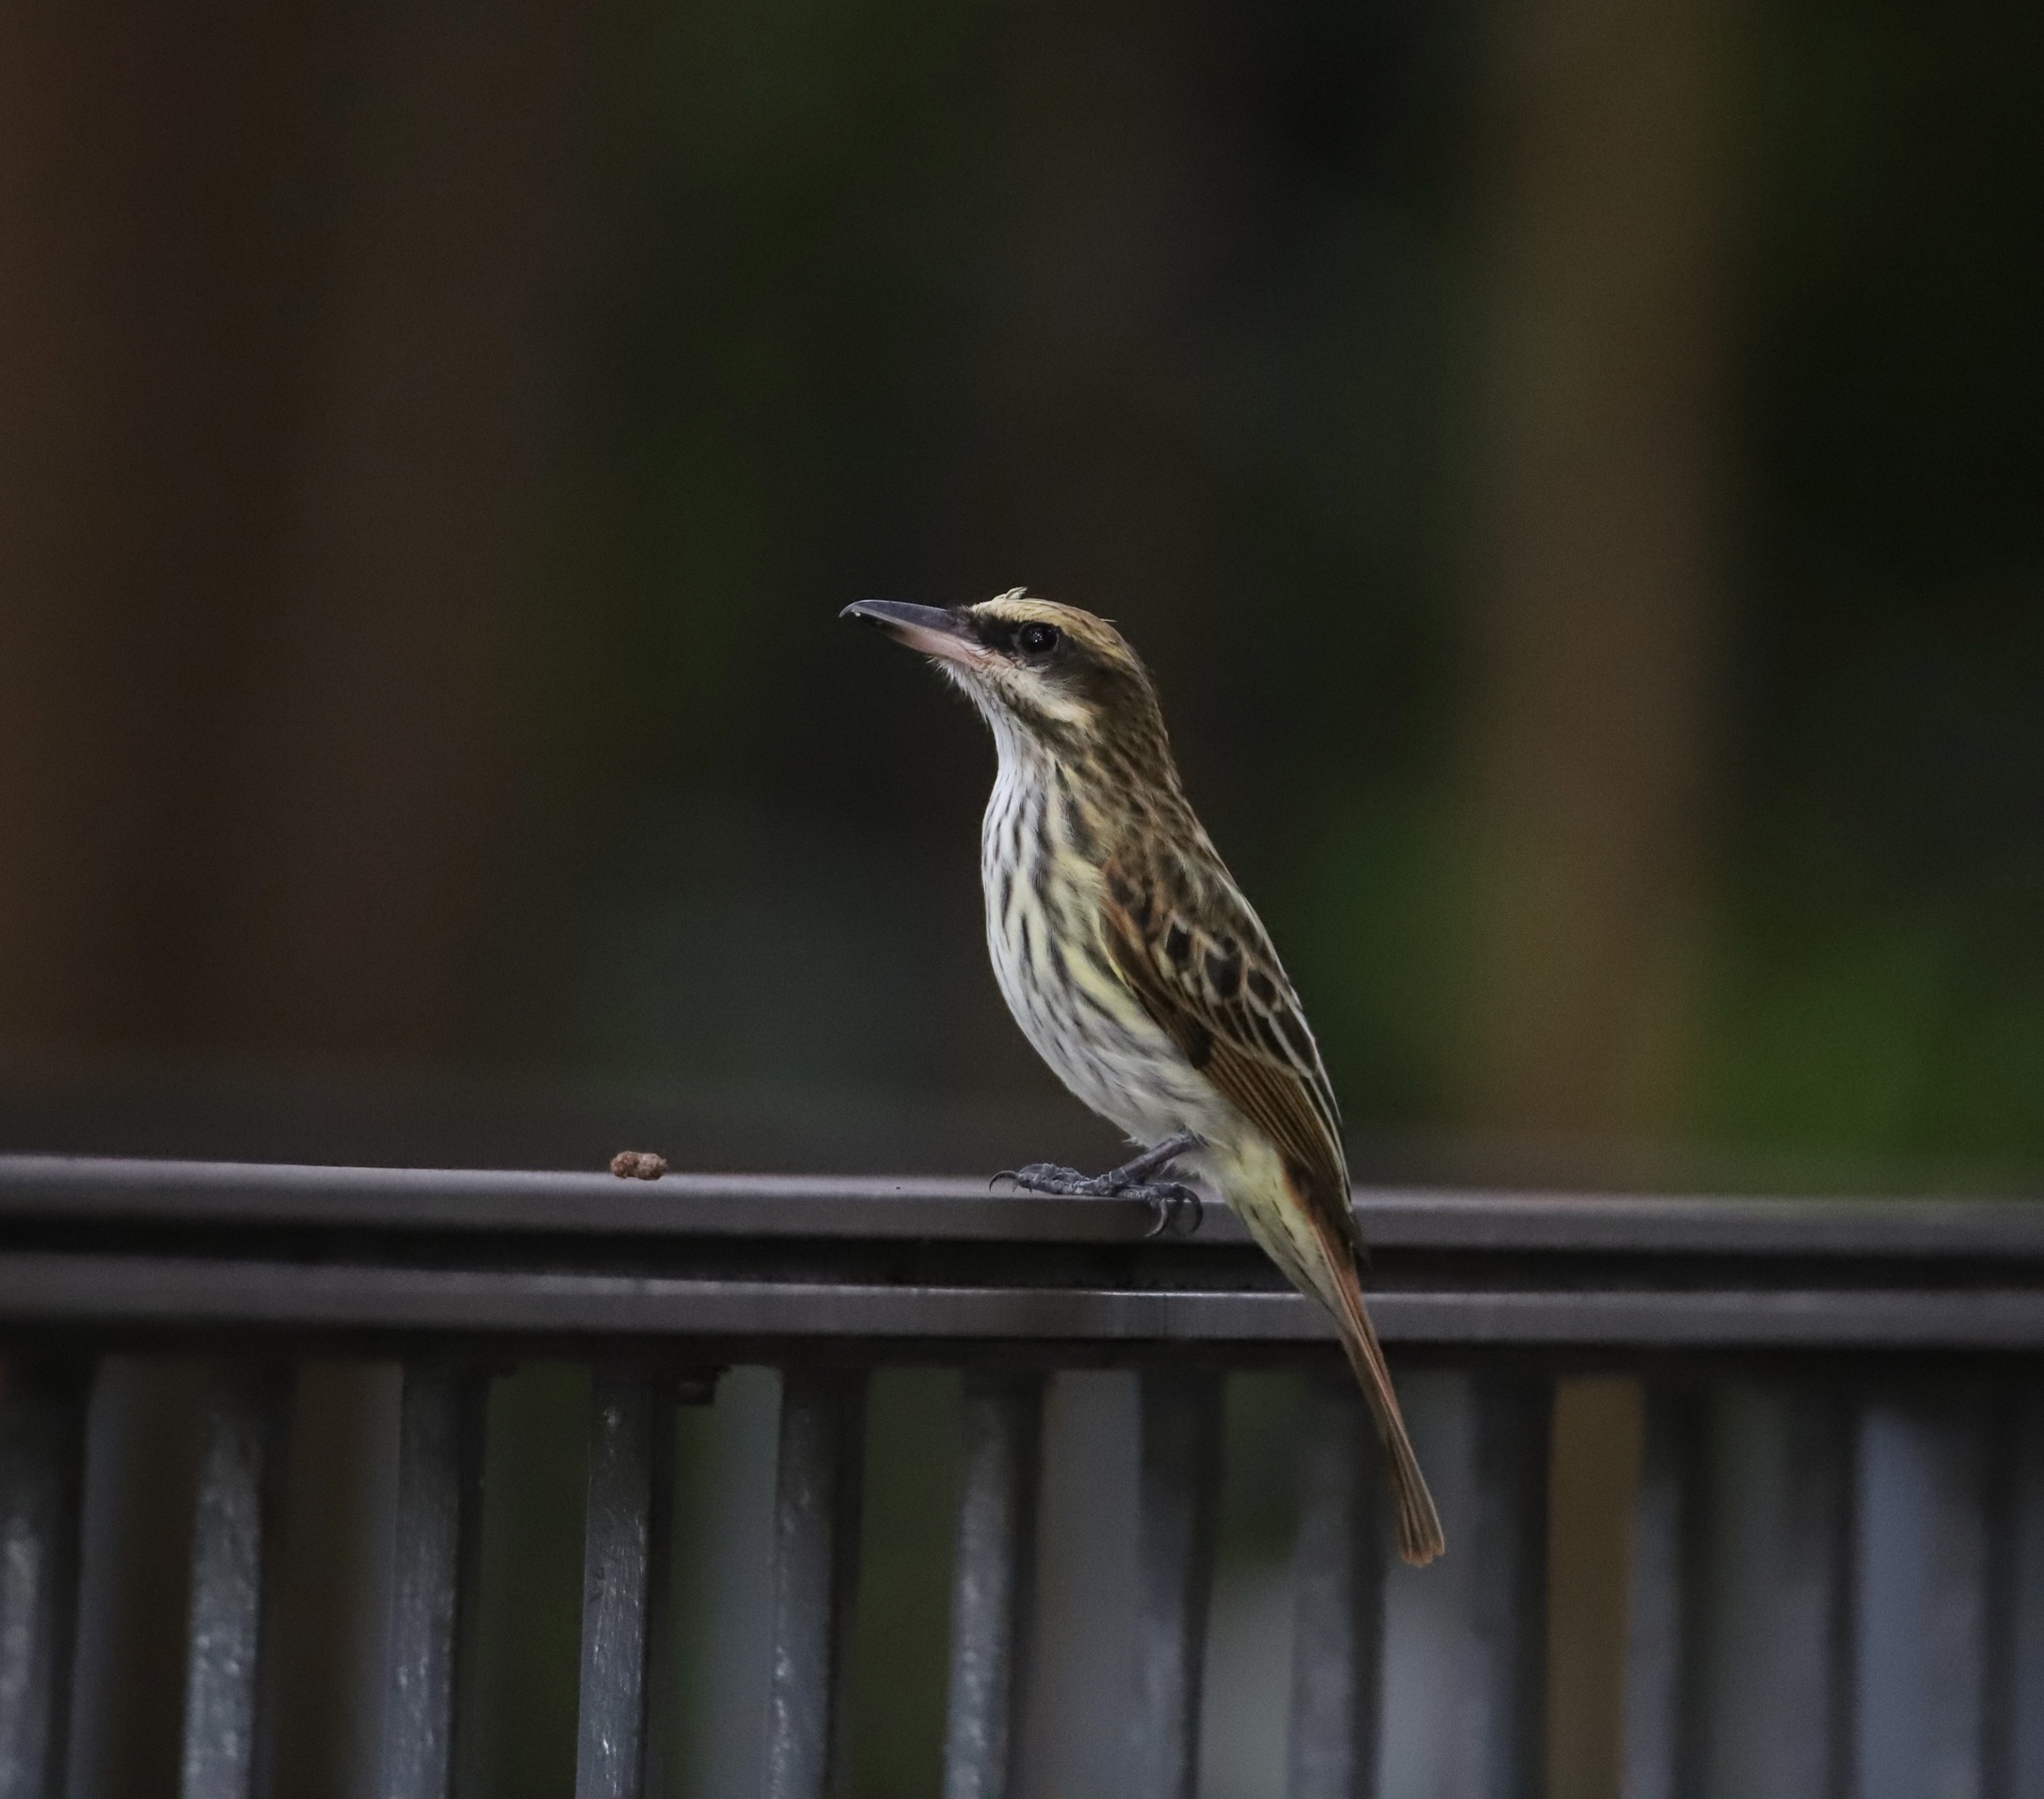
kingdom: Animalia
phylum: Chordata
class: Aves
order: Passeriformes
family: Tyrannidae
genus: Myiodynastes
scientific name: Myiodynastes maculatus
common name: Streaked flycatcher
